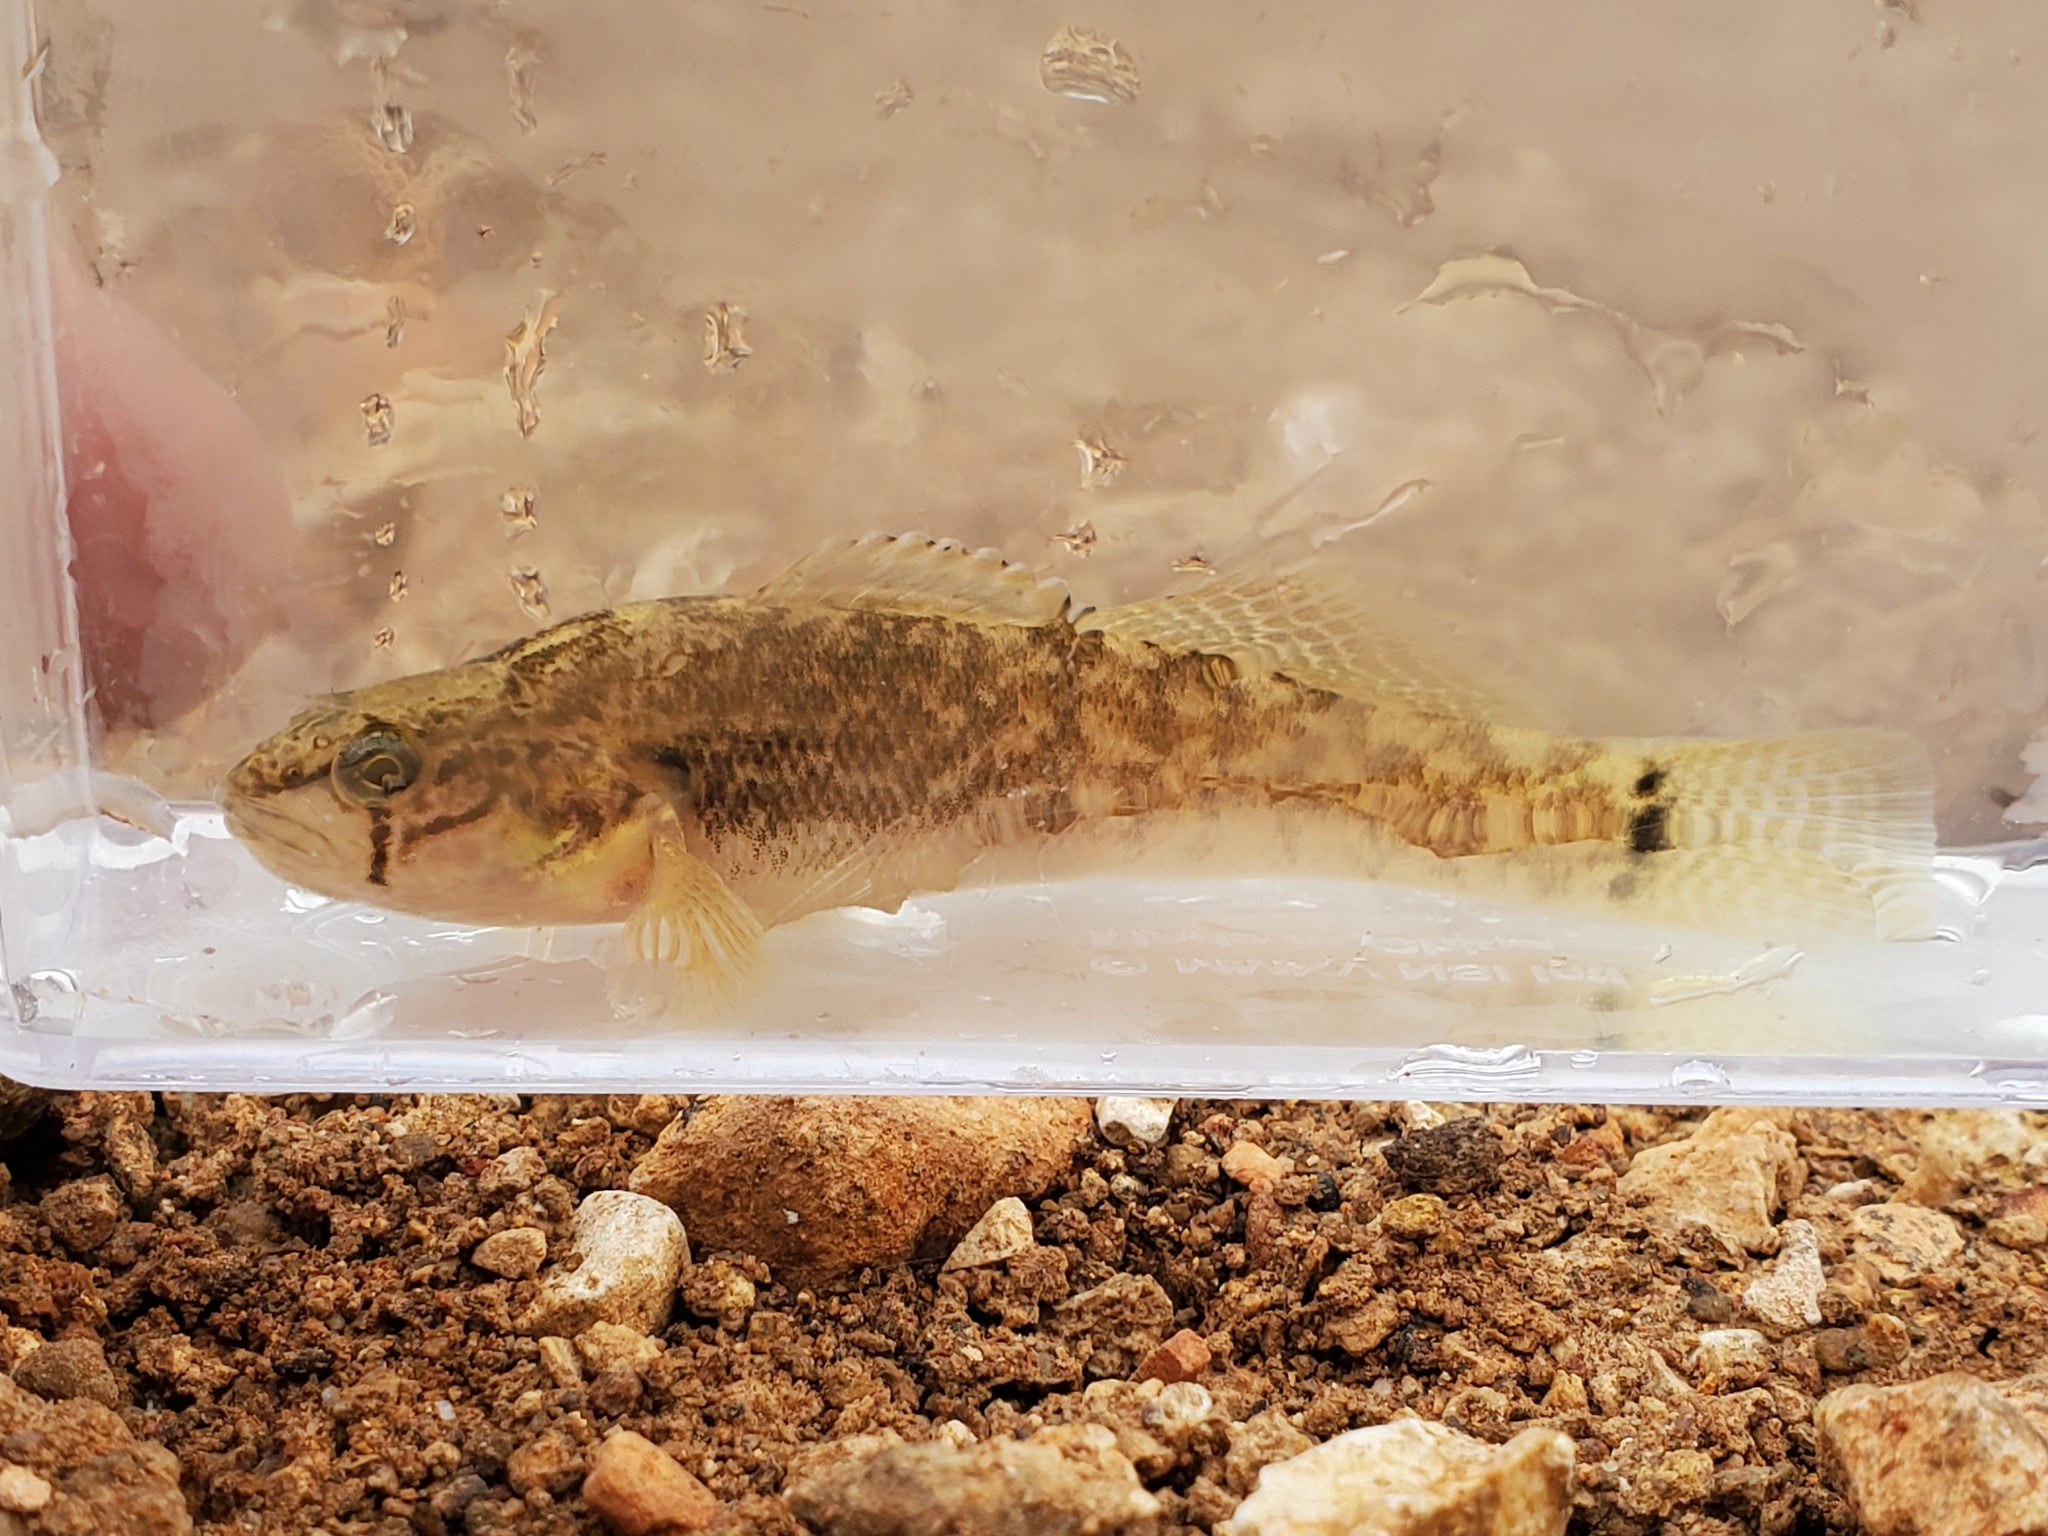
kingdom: Animalia
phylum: Chordata
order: Perciformes
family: Percidae
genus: Etheostoma
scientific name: Etheostoma crossopterum
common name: Fringed darter
